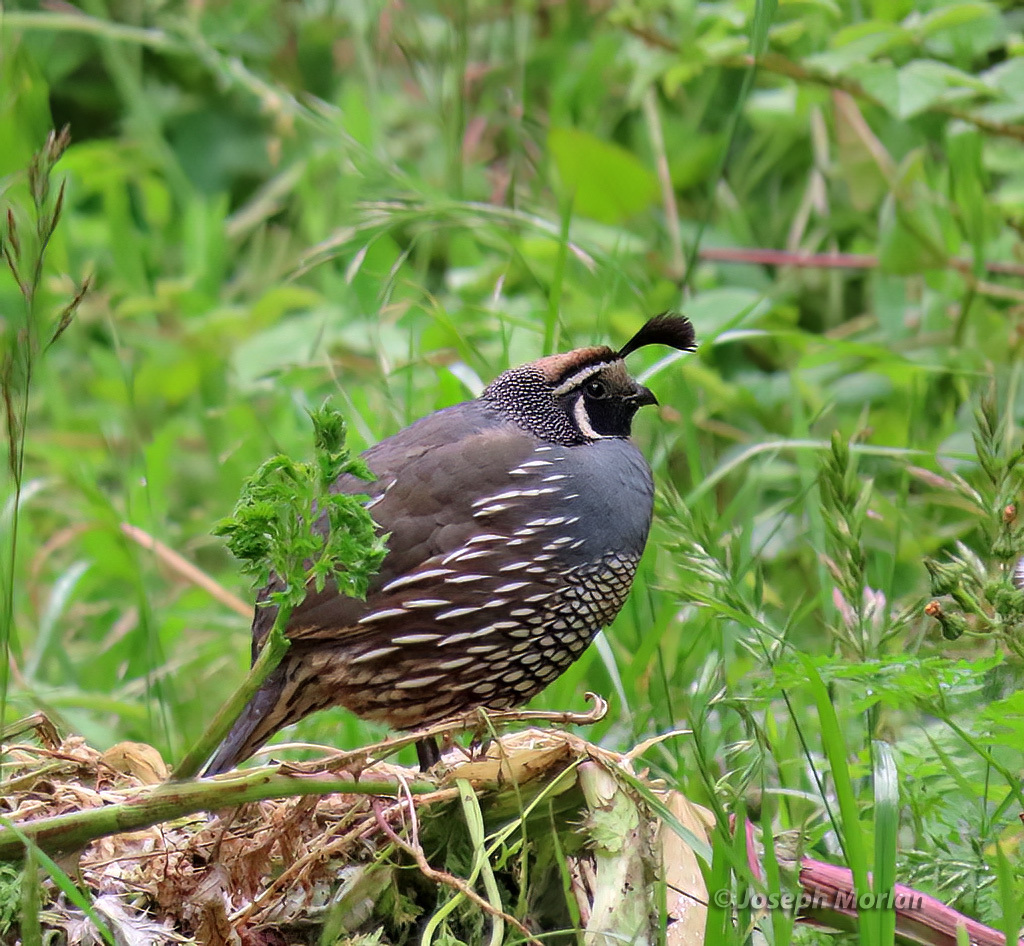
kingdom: Animalia
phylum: Chordata
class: Aves
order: Galliformes
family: Odontophoridae
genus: Callipepla
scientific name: Callipepla californica
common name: California quail
